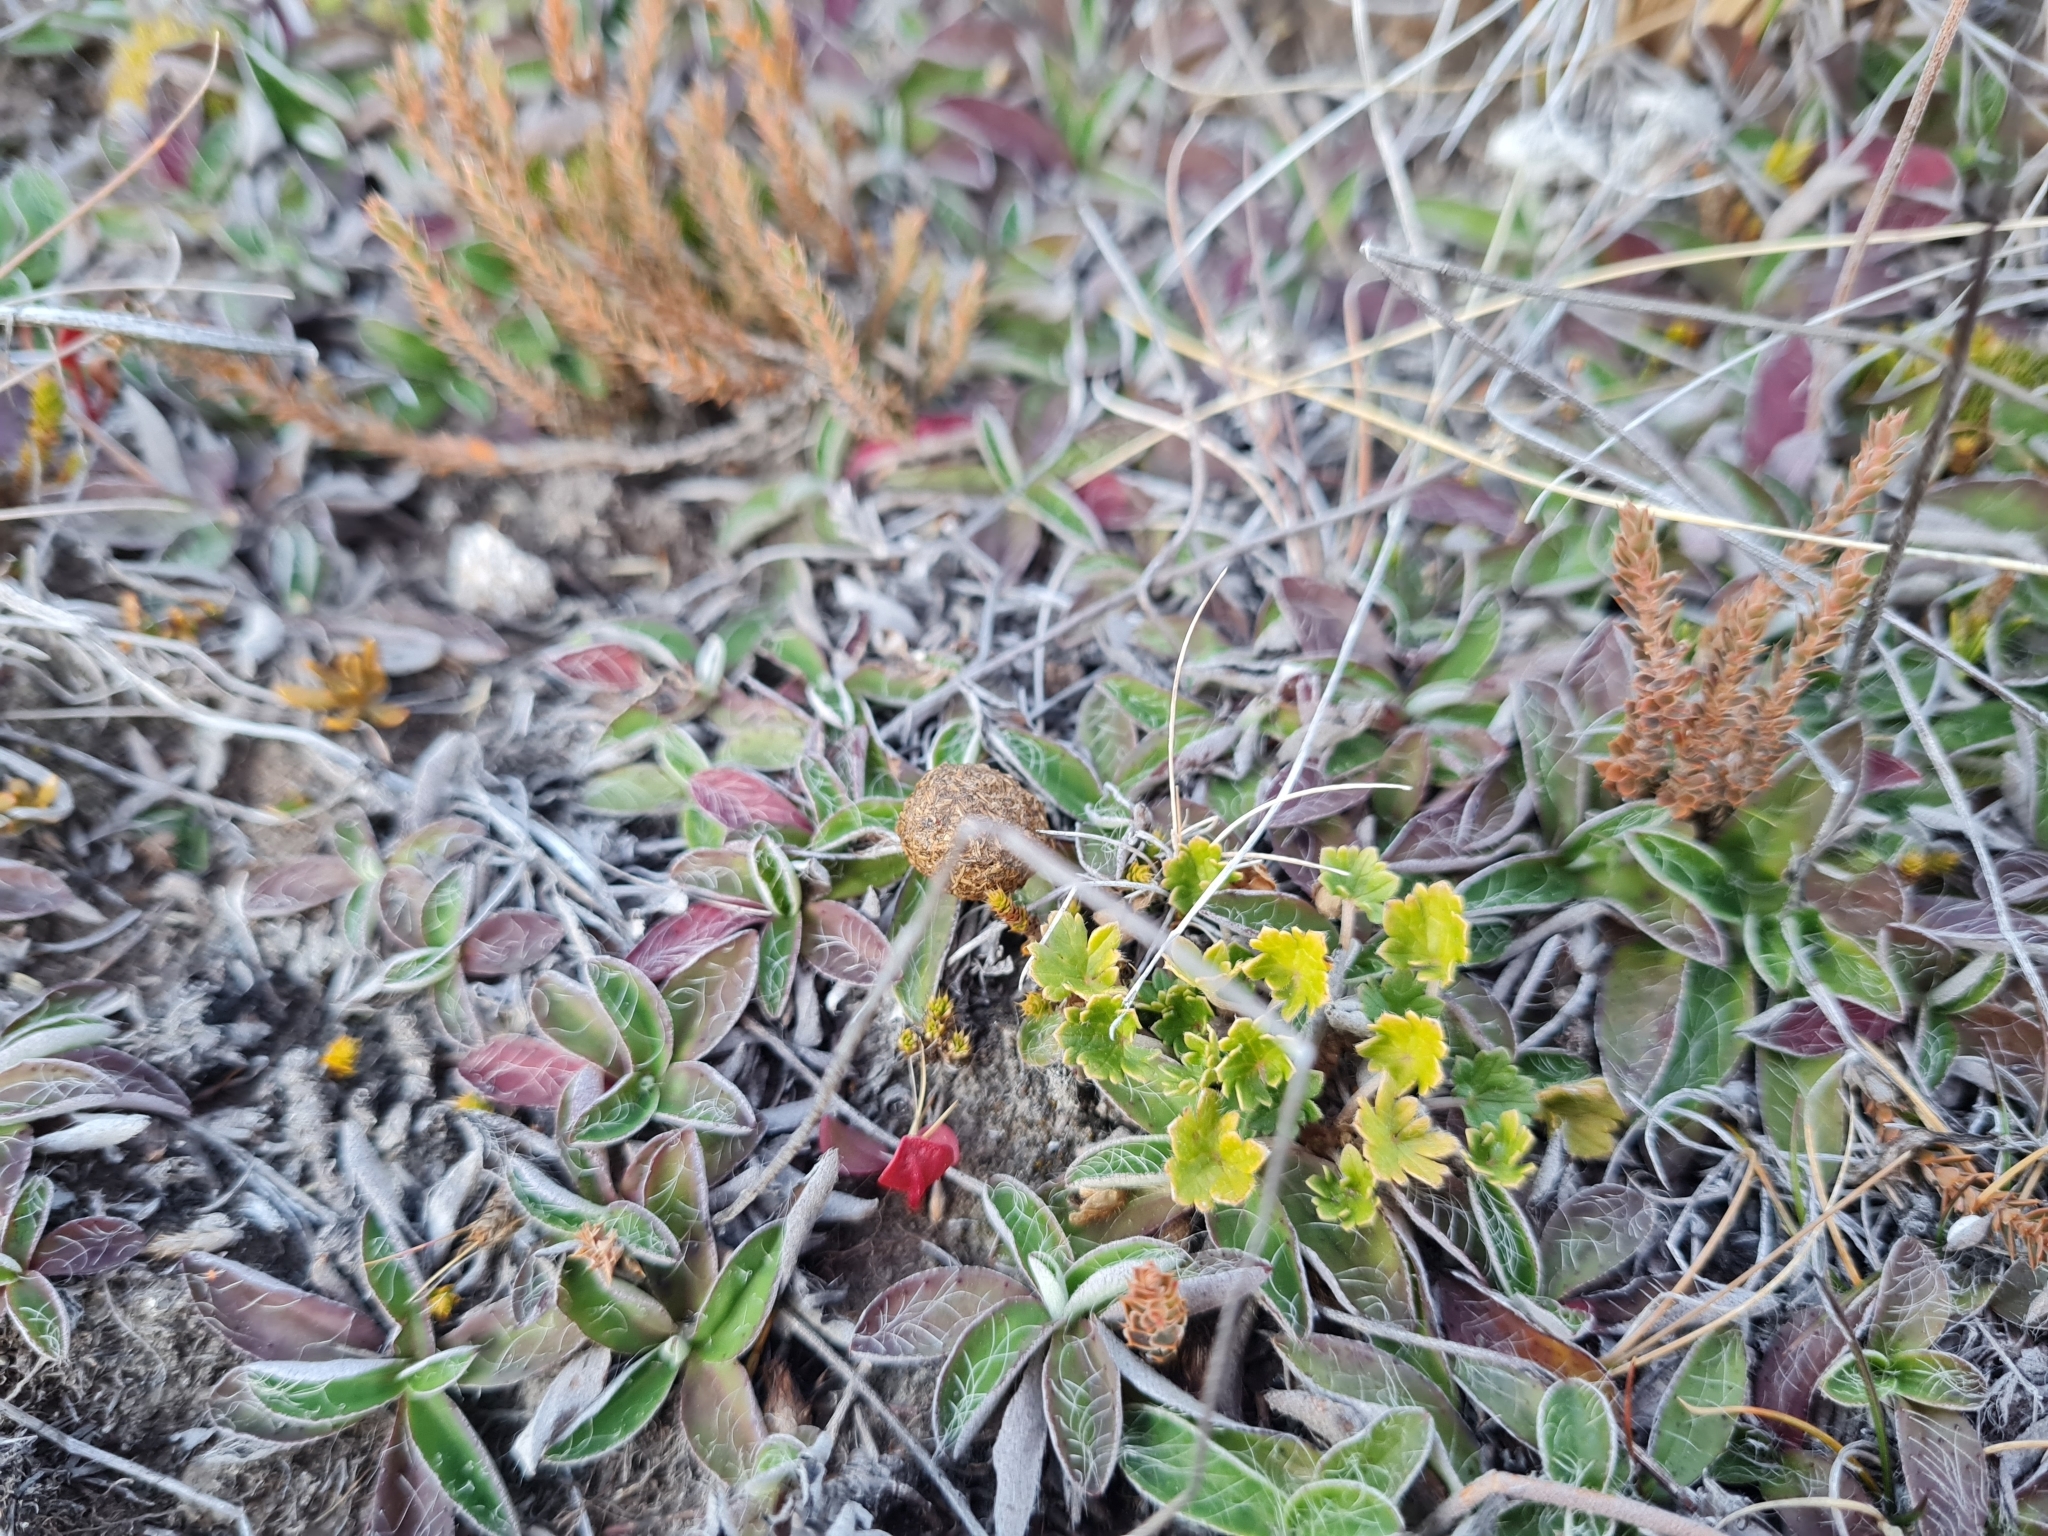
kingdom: Plantae
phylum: Tracheophyta
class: Magnoliopsida
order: Geraniales
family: Geraniaceae
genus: Geranium
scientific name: Geranium brevicaule
